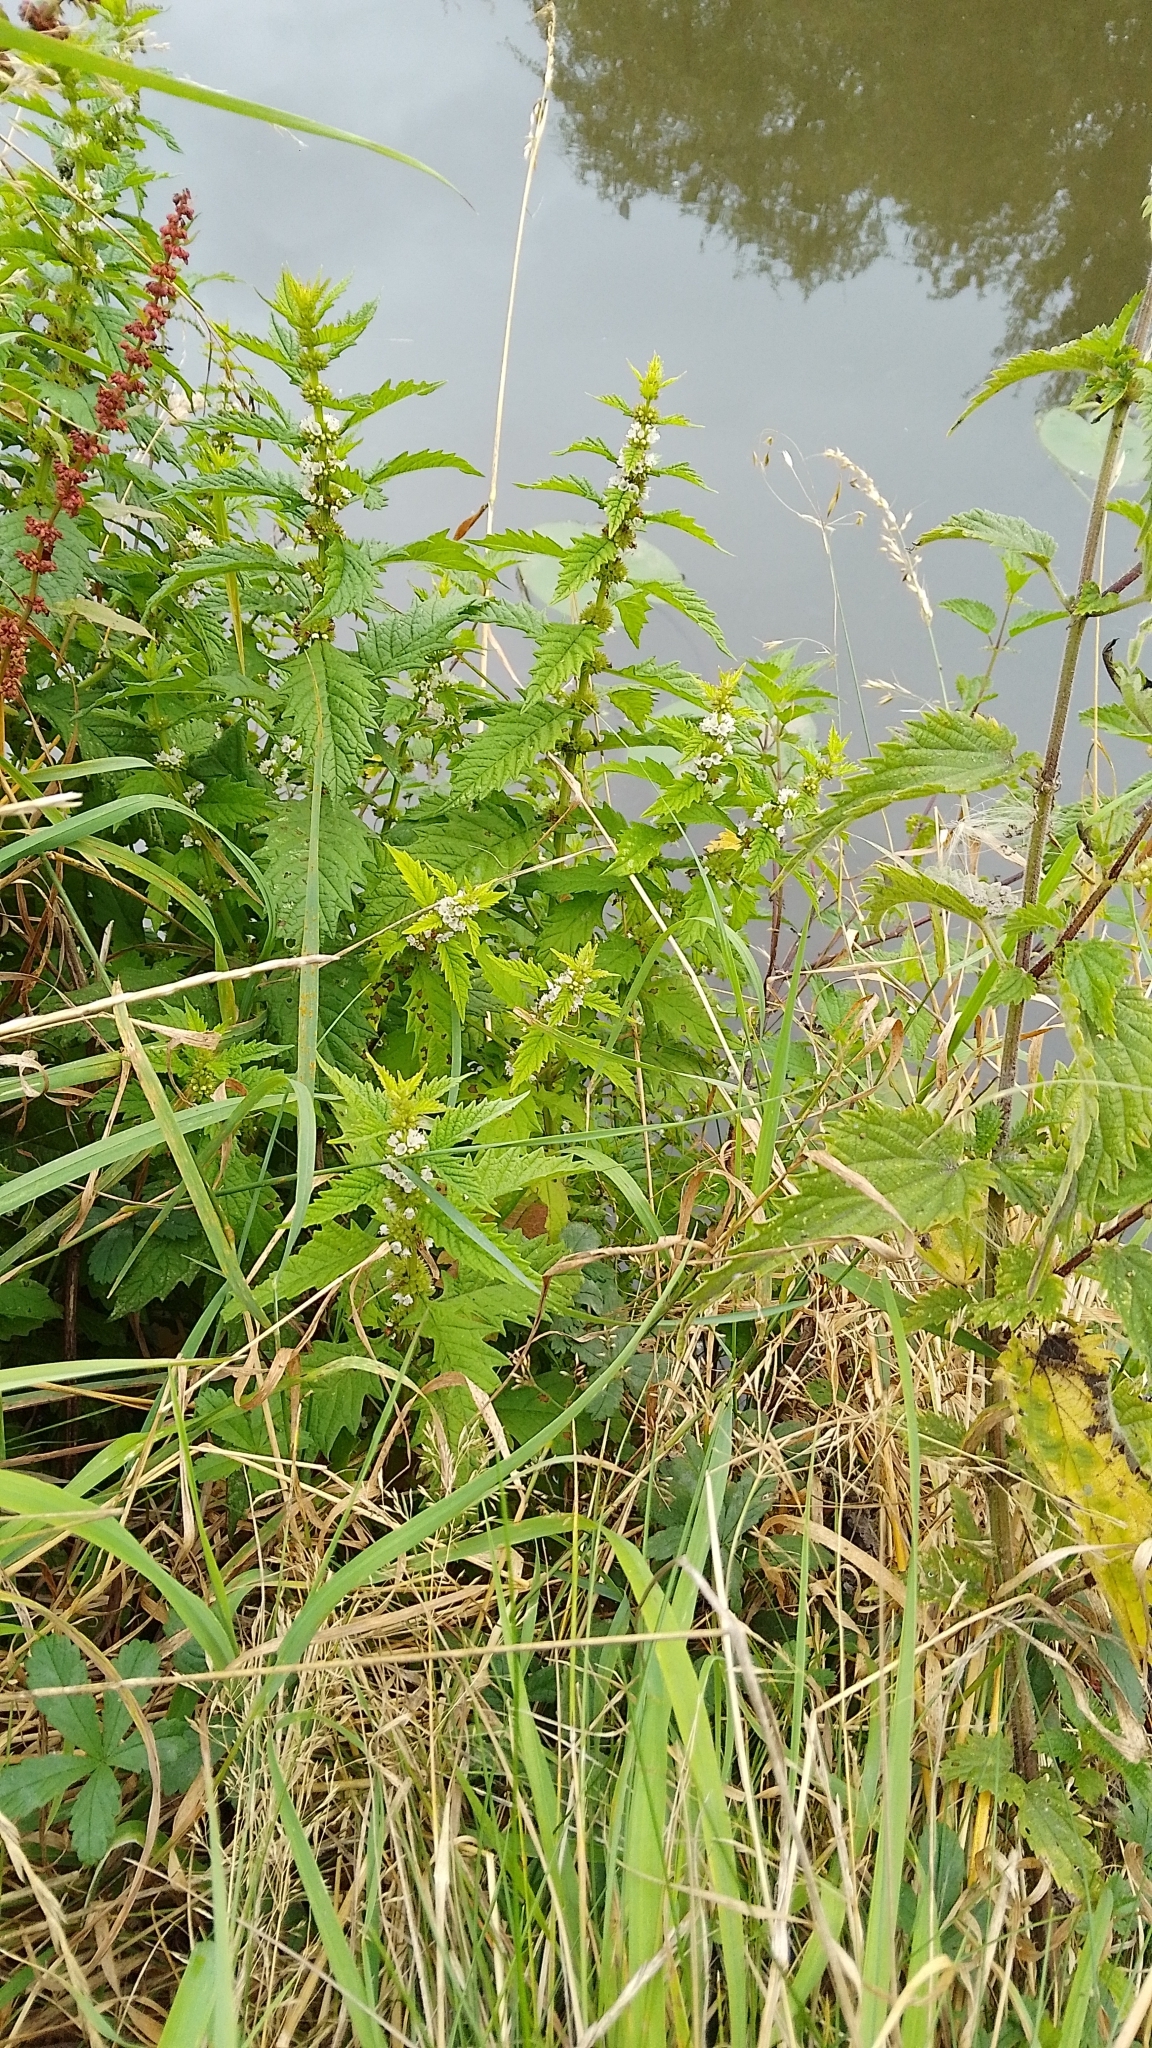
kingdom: Plantae
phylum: Tracheophyta
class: Magnoliopsida
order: Lamiales
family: Lamiaceae
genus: Lycopus
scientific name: Lycopus europaeus
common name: European bugleweed
